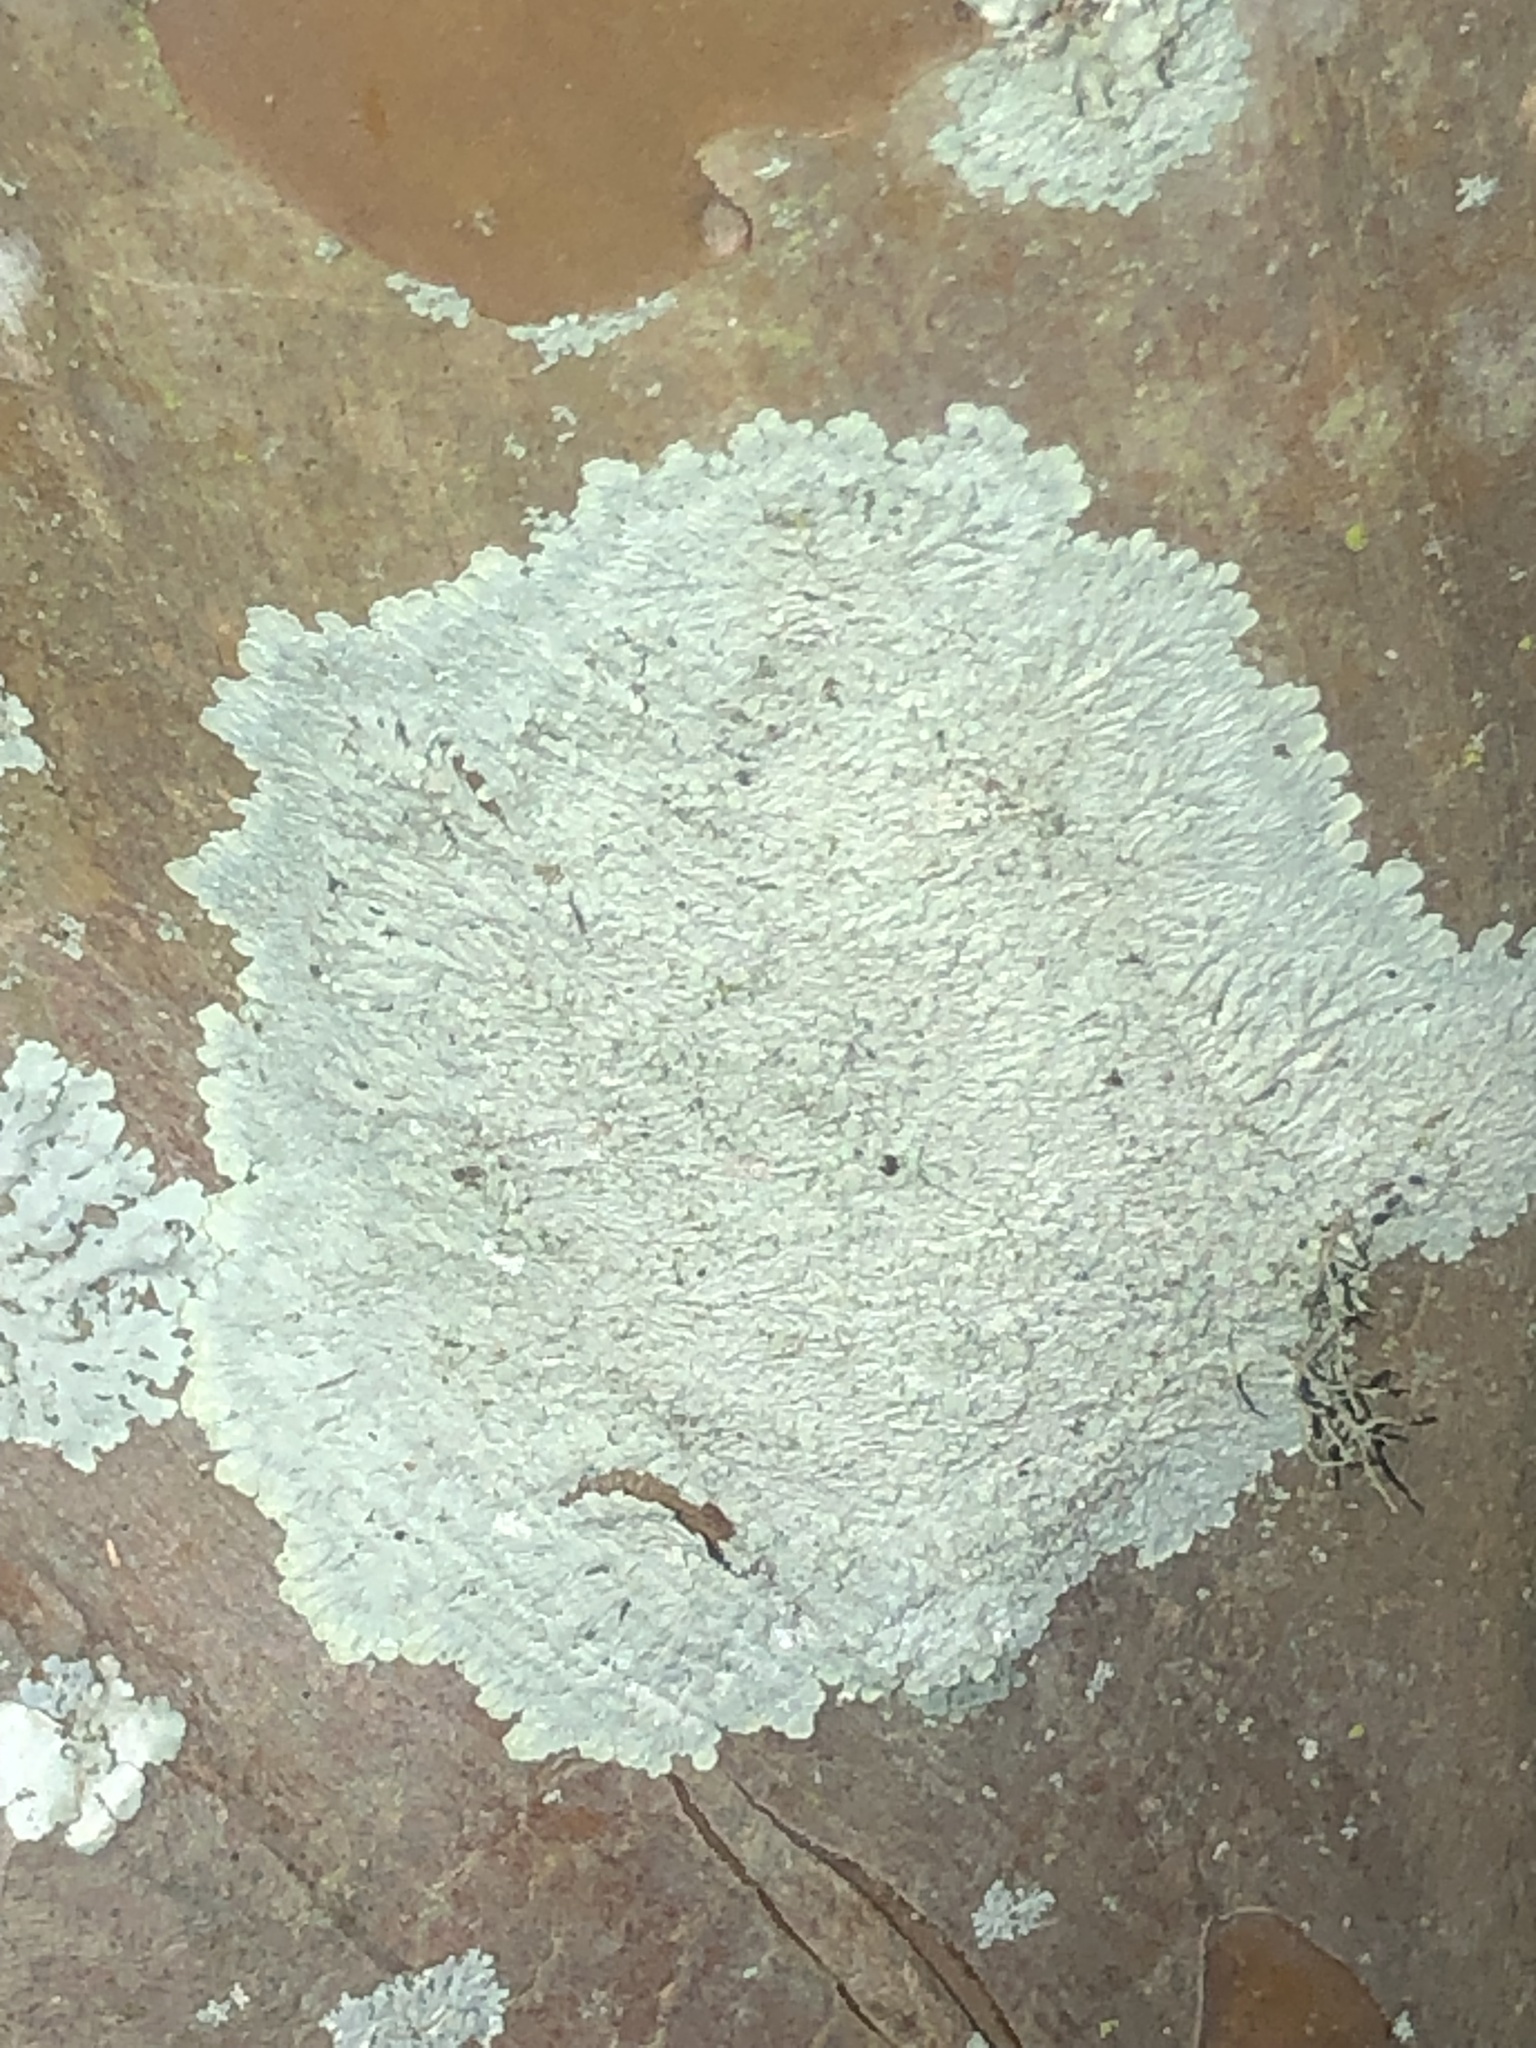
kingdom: Fungi
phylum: Ascomycota
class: Lecanoromycetes
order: Caliciales
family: Caliciaceae
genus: Dirinaria
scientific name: Dirinaria aegialita
